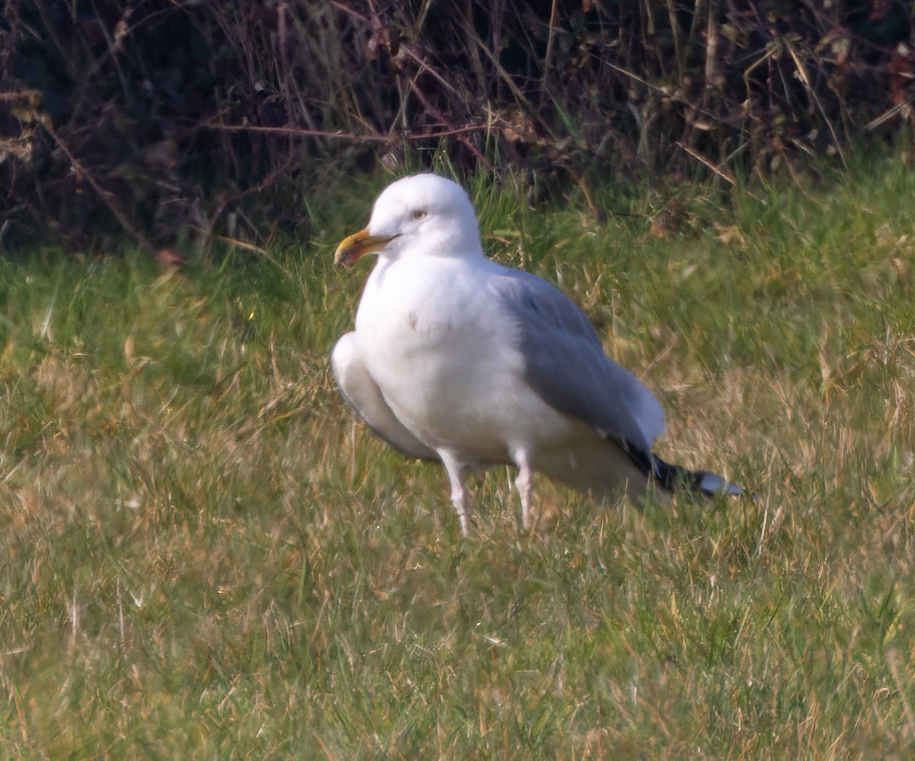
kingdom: Animalia
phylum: Chordata
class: Aves
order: Charadriiformes
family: Laridae
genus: Larus
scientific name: Larus argentatus
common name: Herring gull
